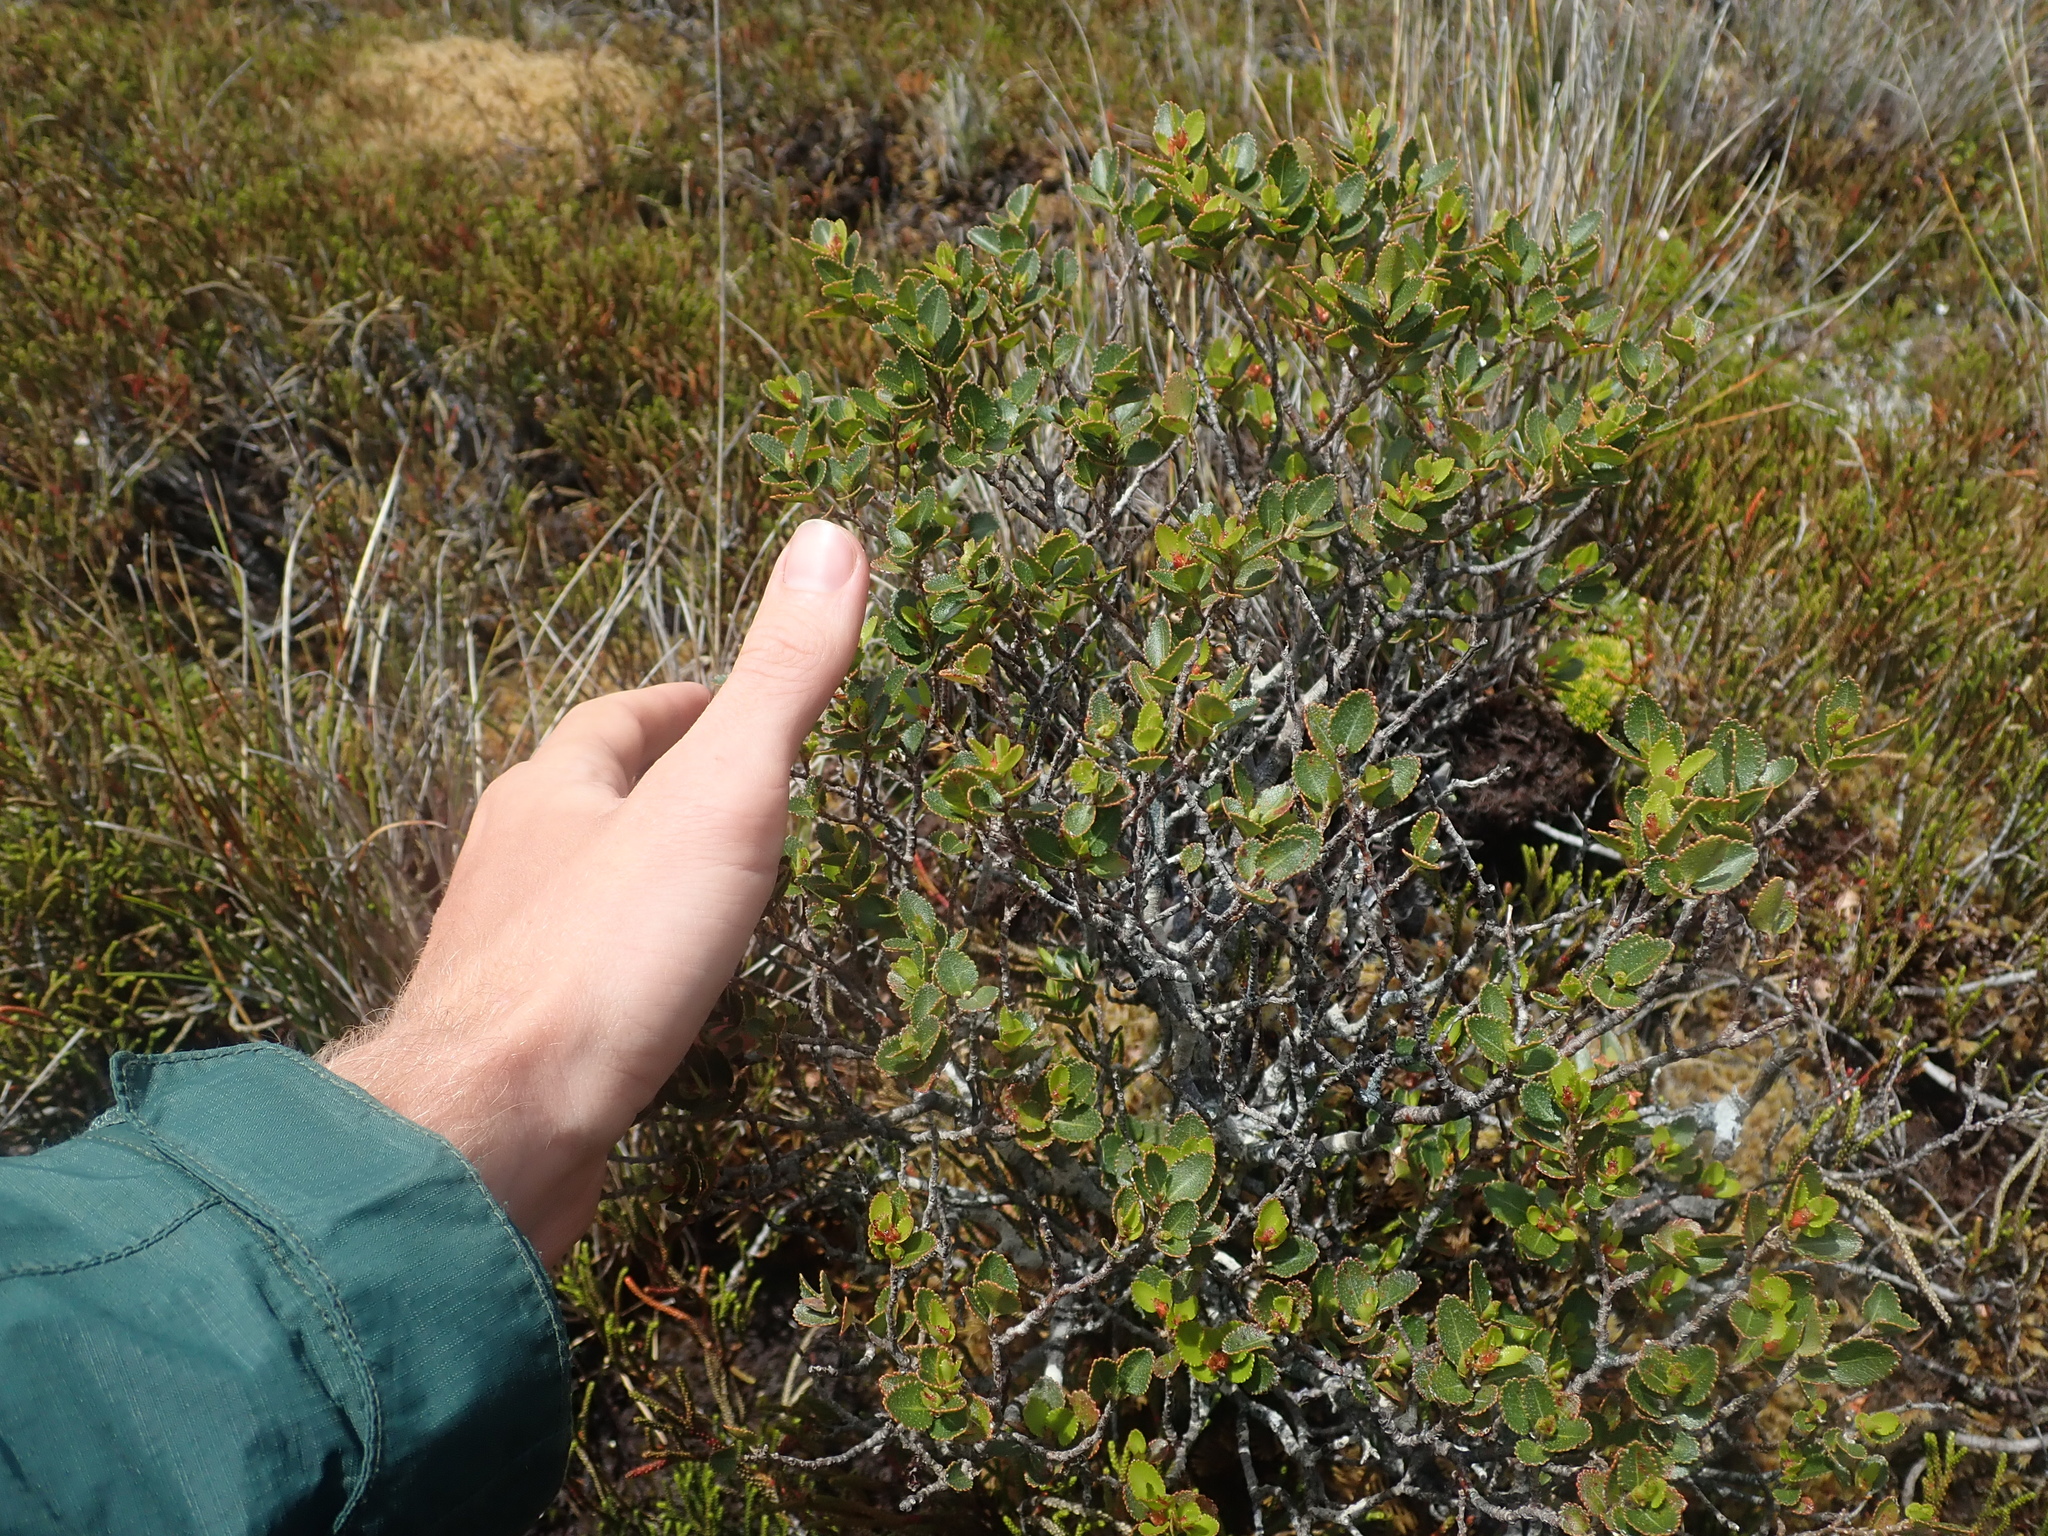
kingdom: Plantae
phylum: Tracheophyta
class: Magnoliopsida
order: Fagales
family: Nothofagaceae
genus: Nothofagus
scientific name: Nothofagus betuloides
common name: Magellan's beech
